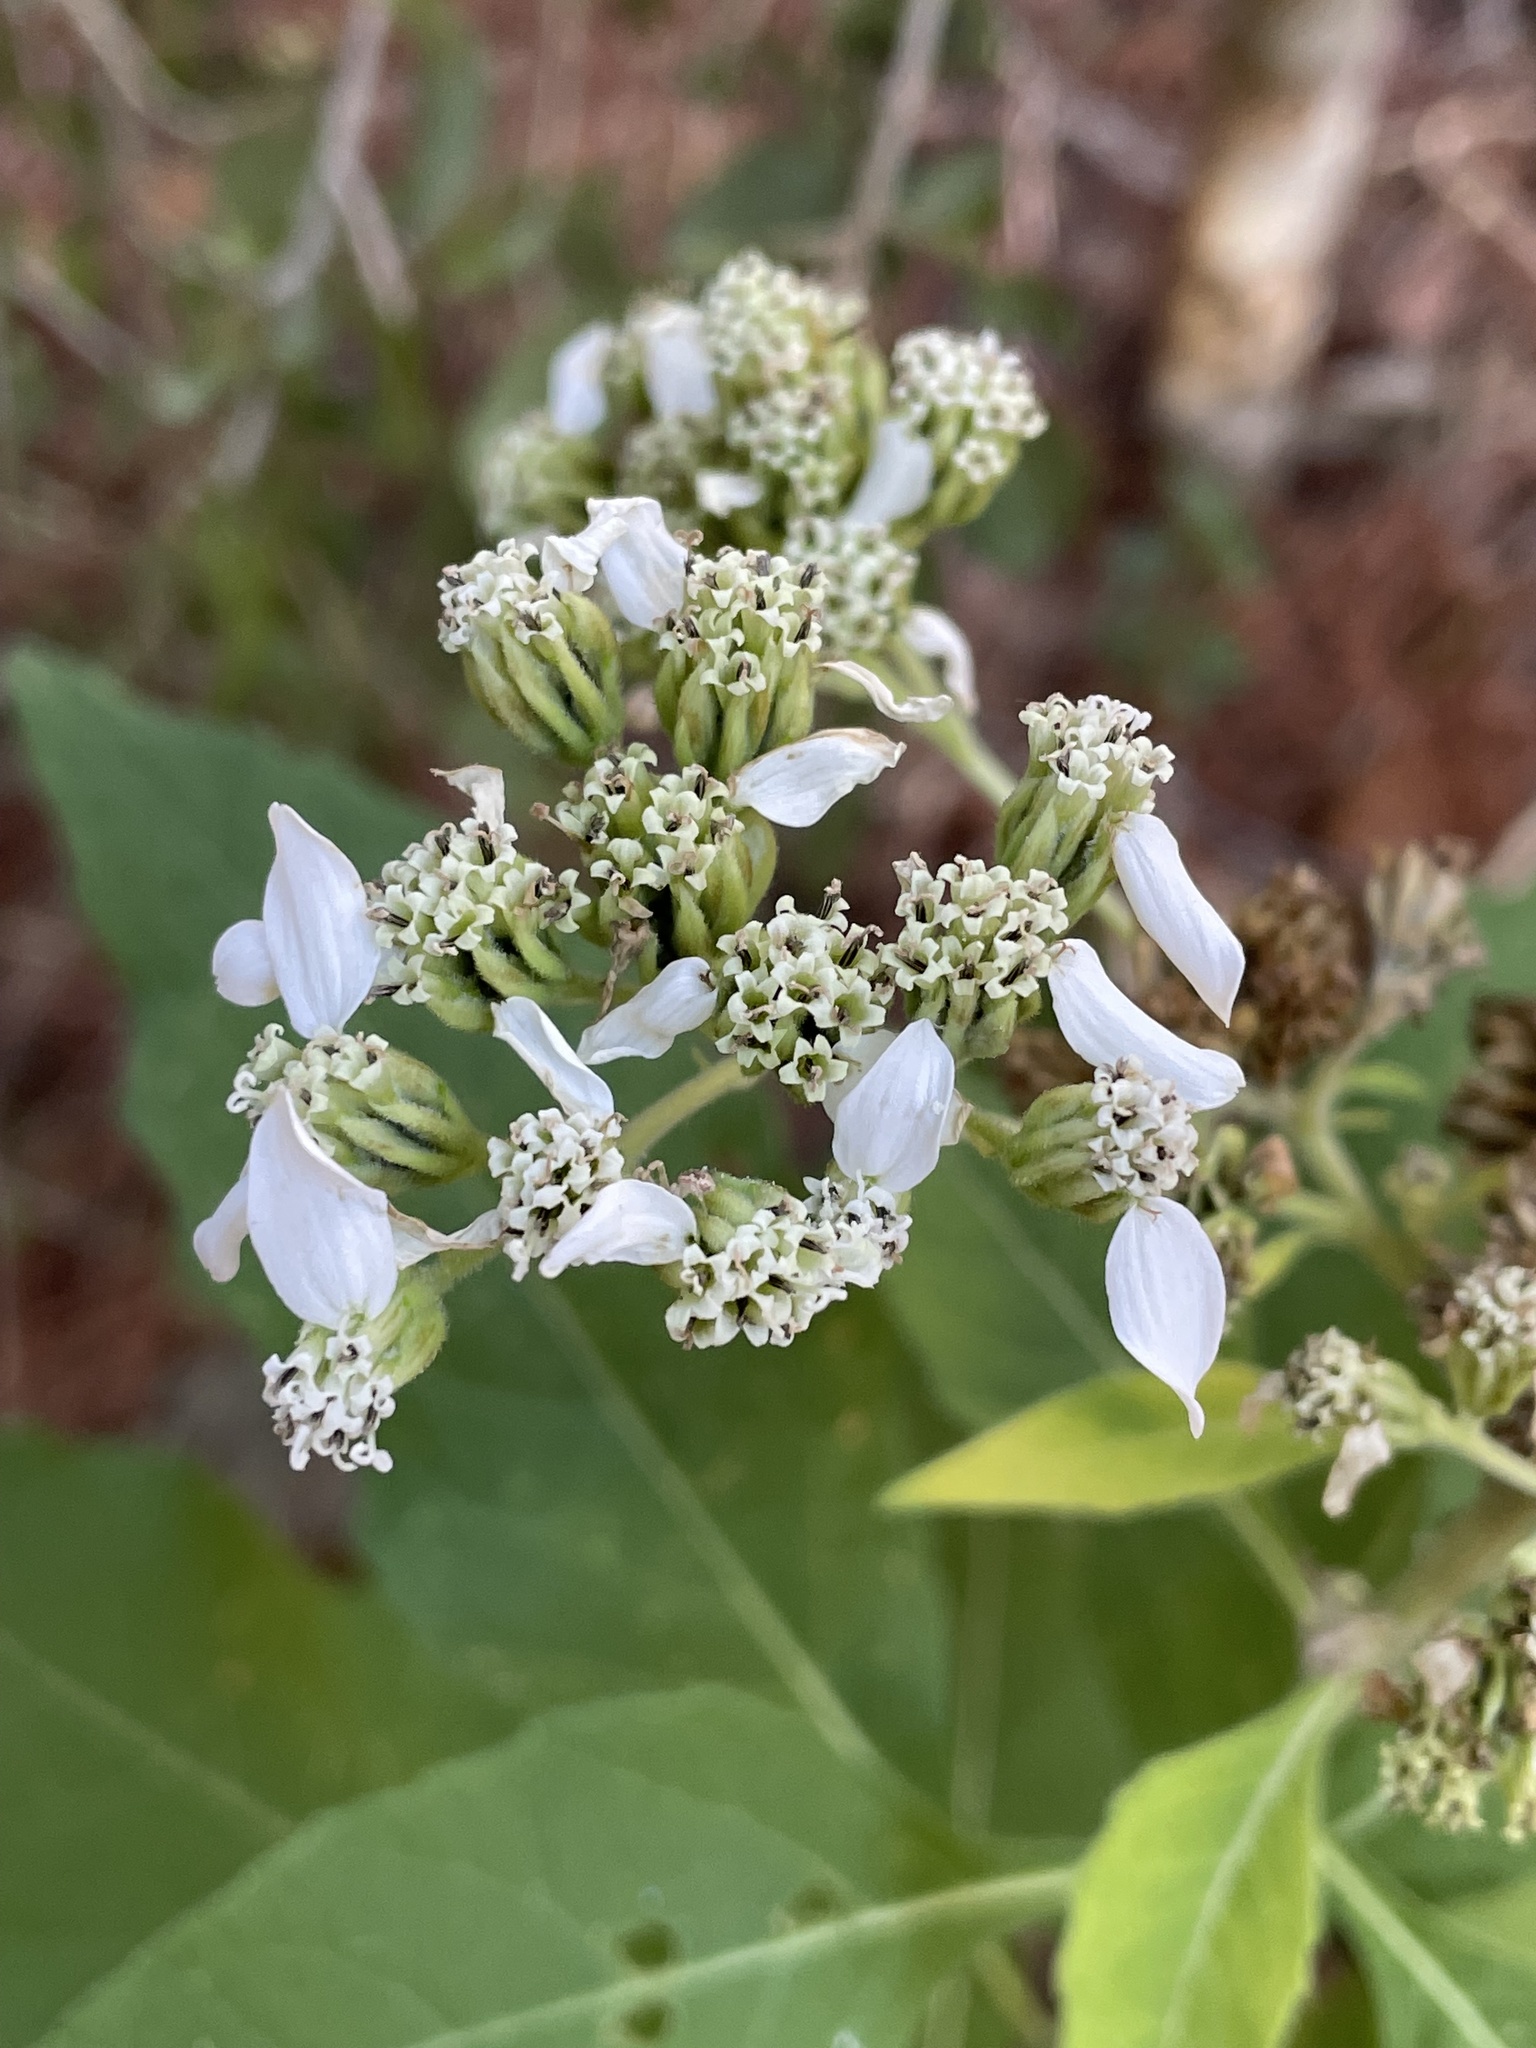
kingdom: Plantae
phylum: Tracheophyta
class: Magnoliopsida
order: Asterales
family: Asteraceae
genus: Verbesina
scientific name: Verbesina virginica
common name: Frostweed
